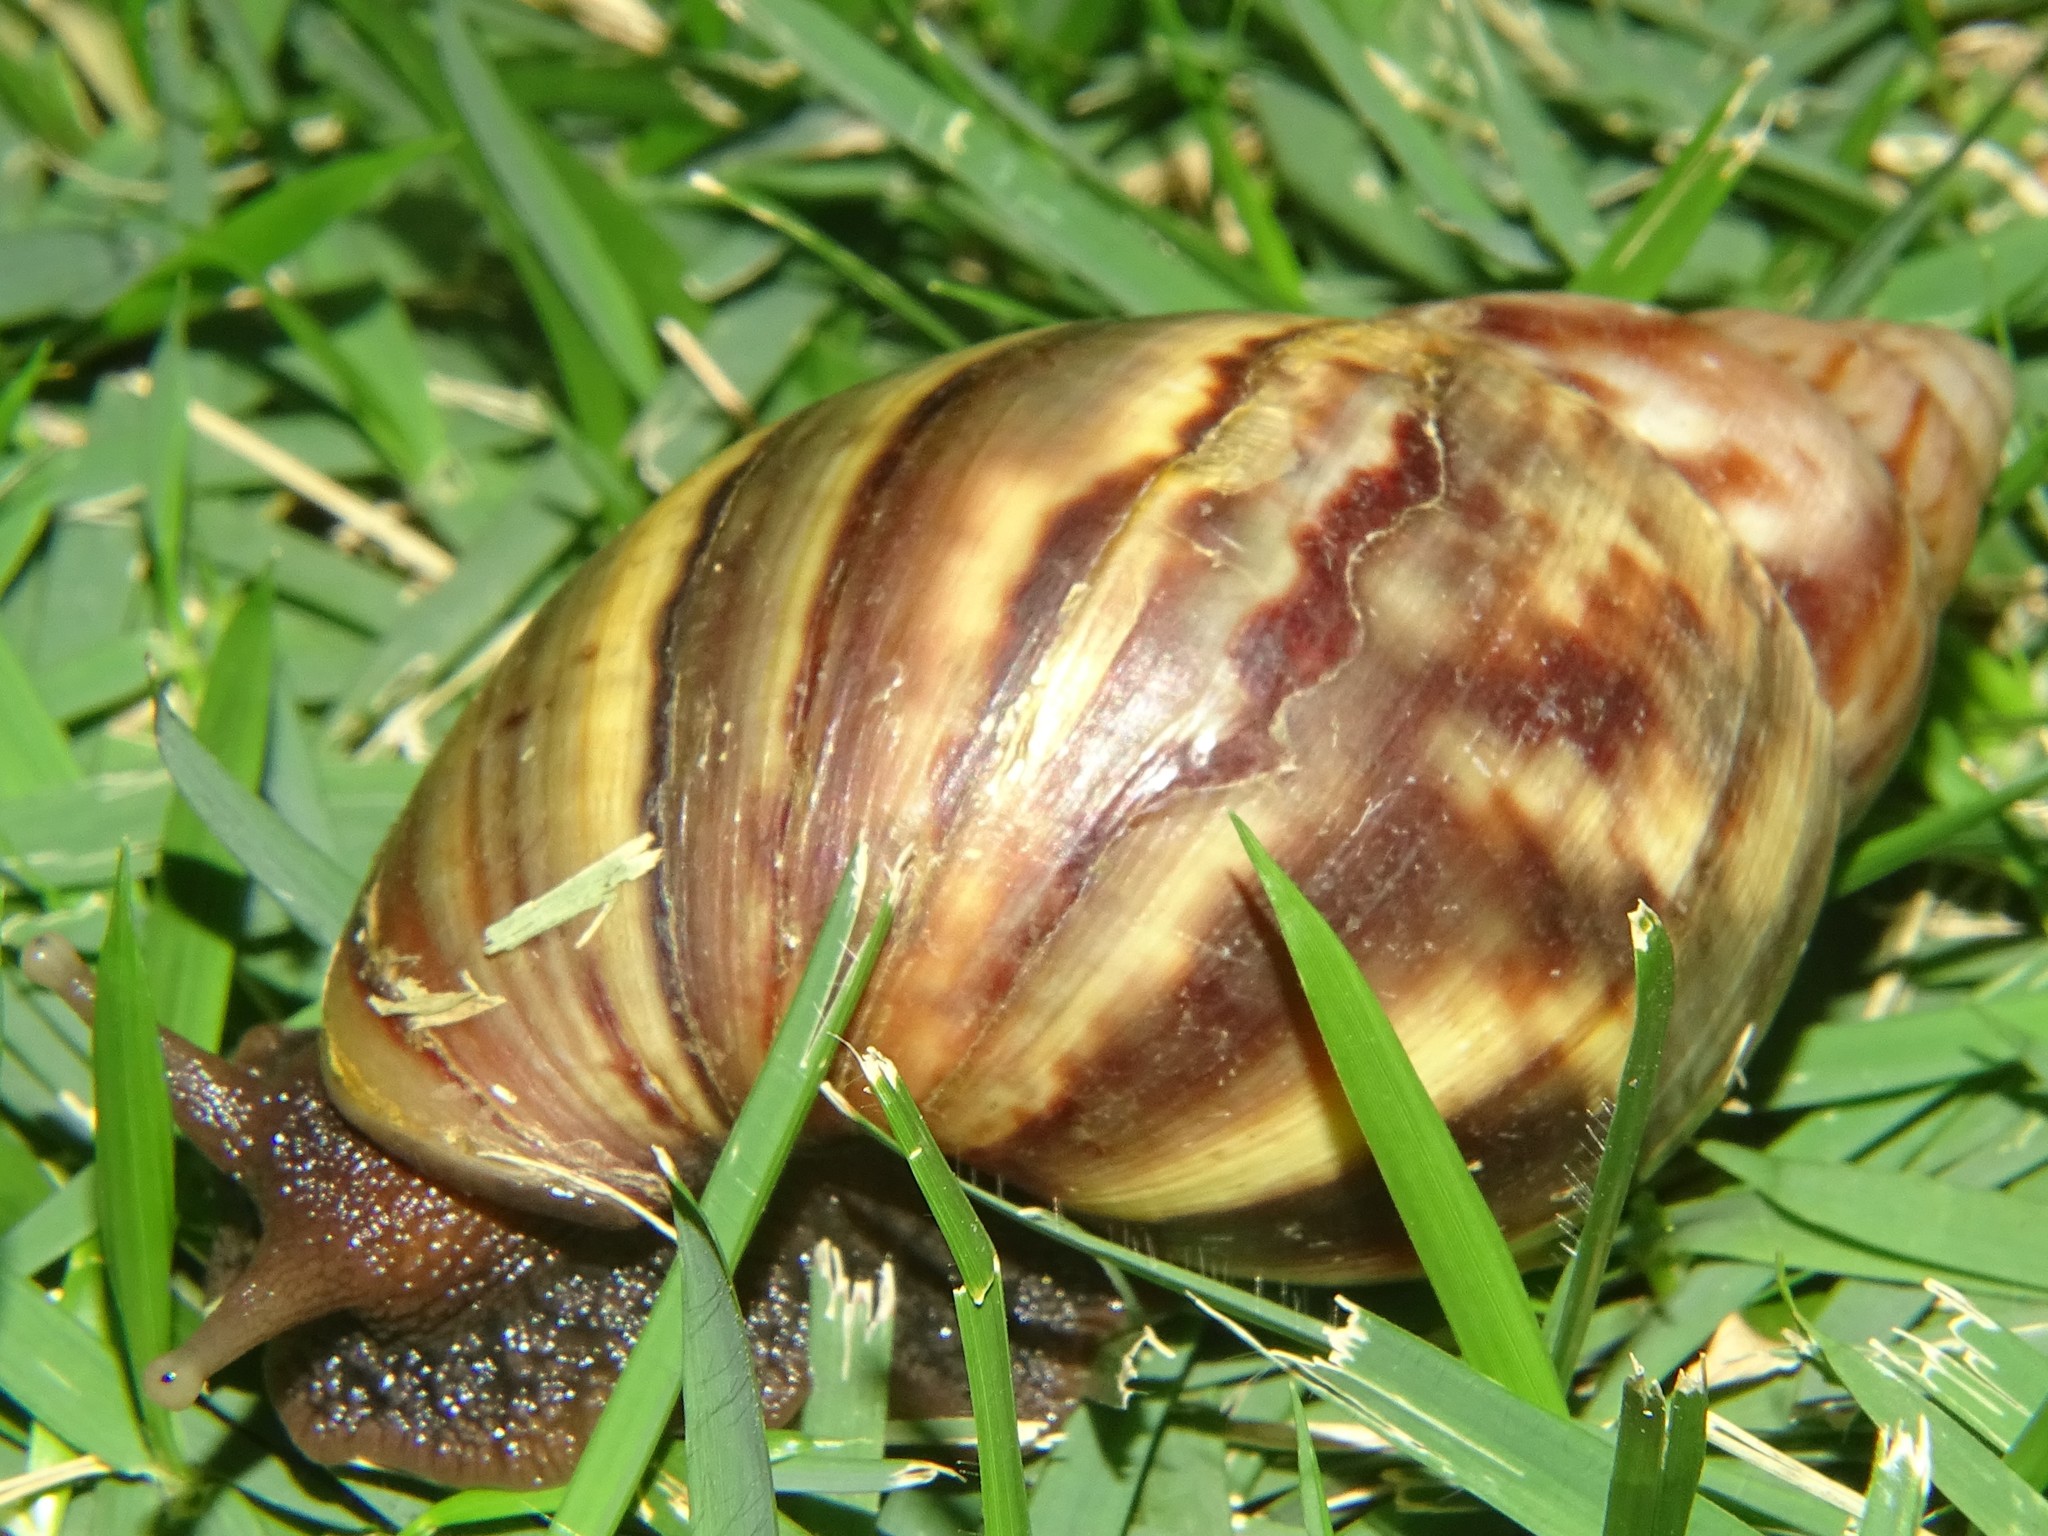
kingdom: Animalia
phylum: Mollusca
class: Gastropoda
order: Stylommatophora
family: Achatinidae
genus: Lissachatina
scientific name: Lissachatina fulica
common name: Giant african snail
